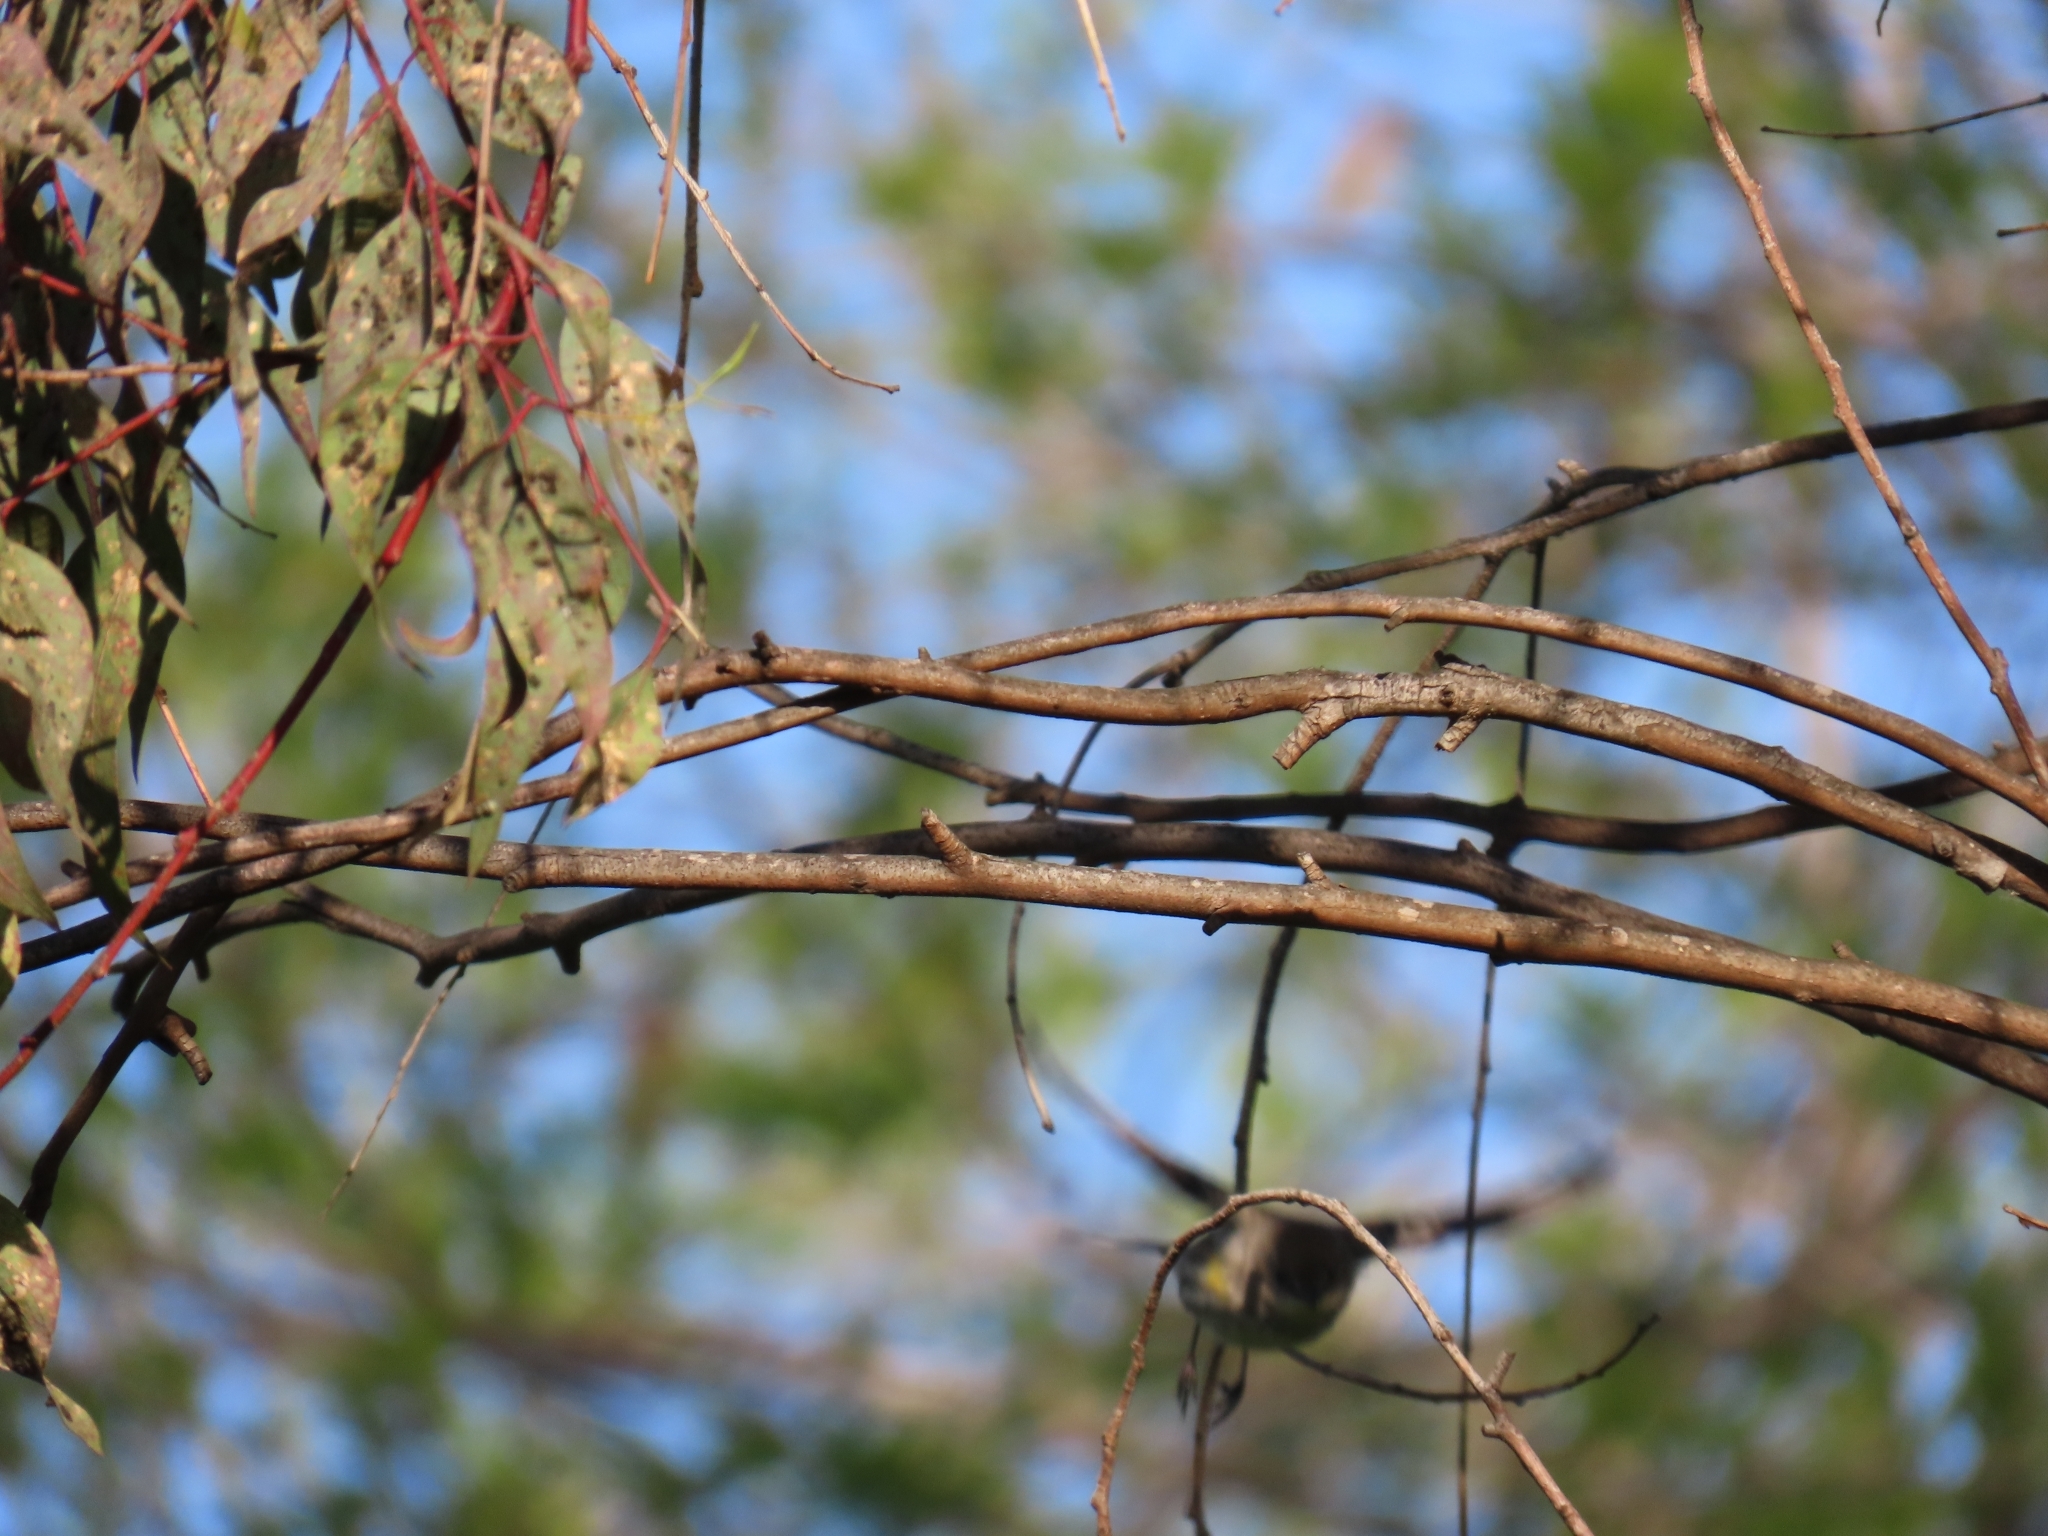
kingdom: Animalia
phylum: Chordata
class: Aves
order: Passeriformes
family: Parulidae
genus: Setophaga
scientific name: Setophaga coronata
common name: Myrtle warbler
